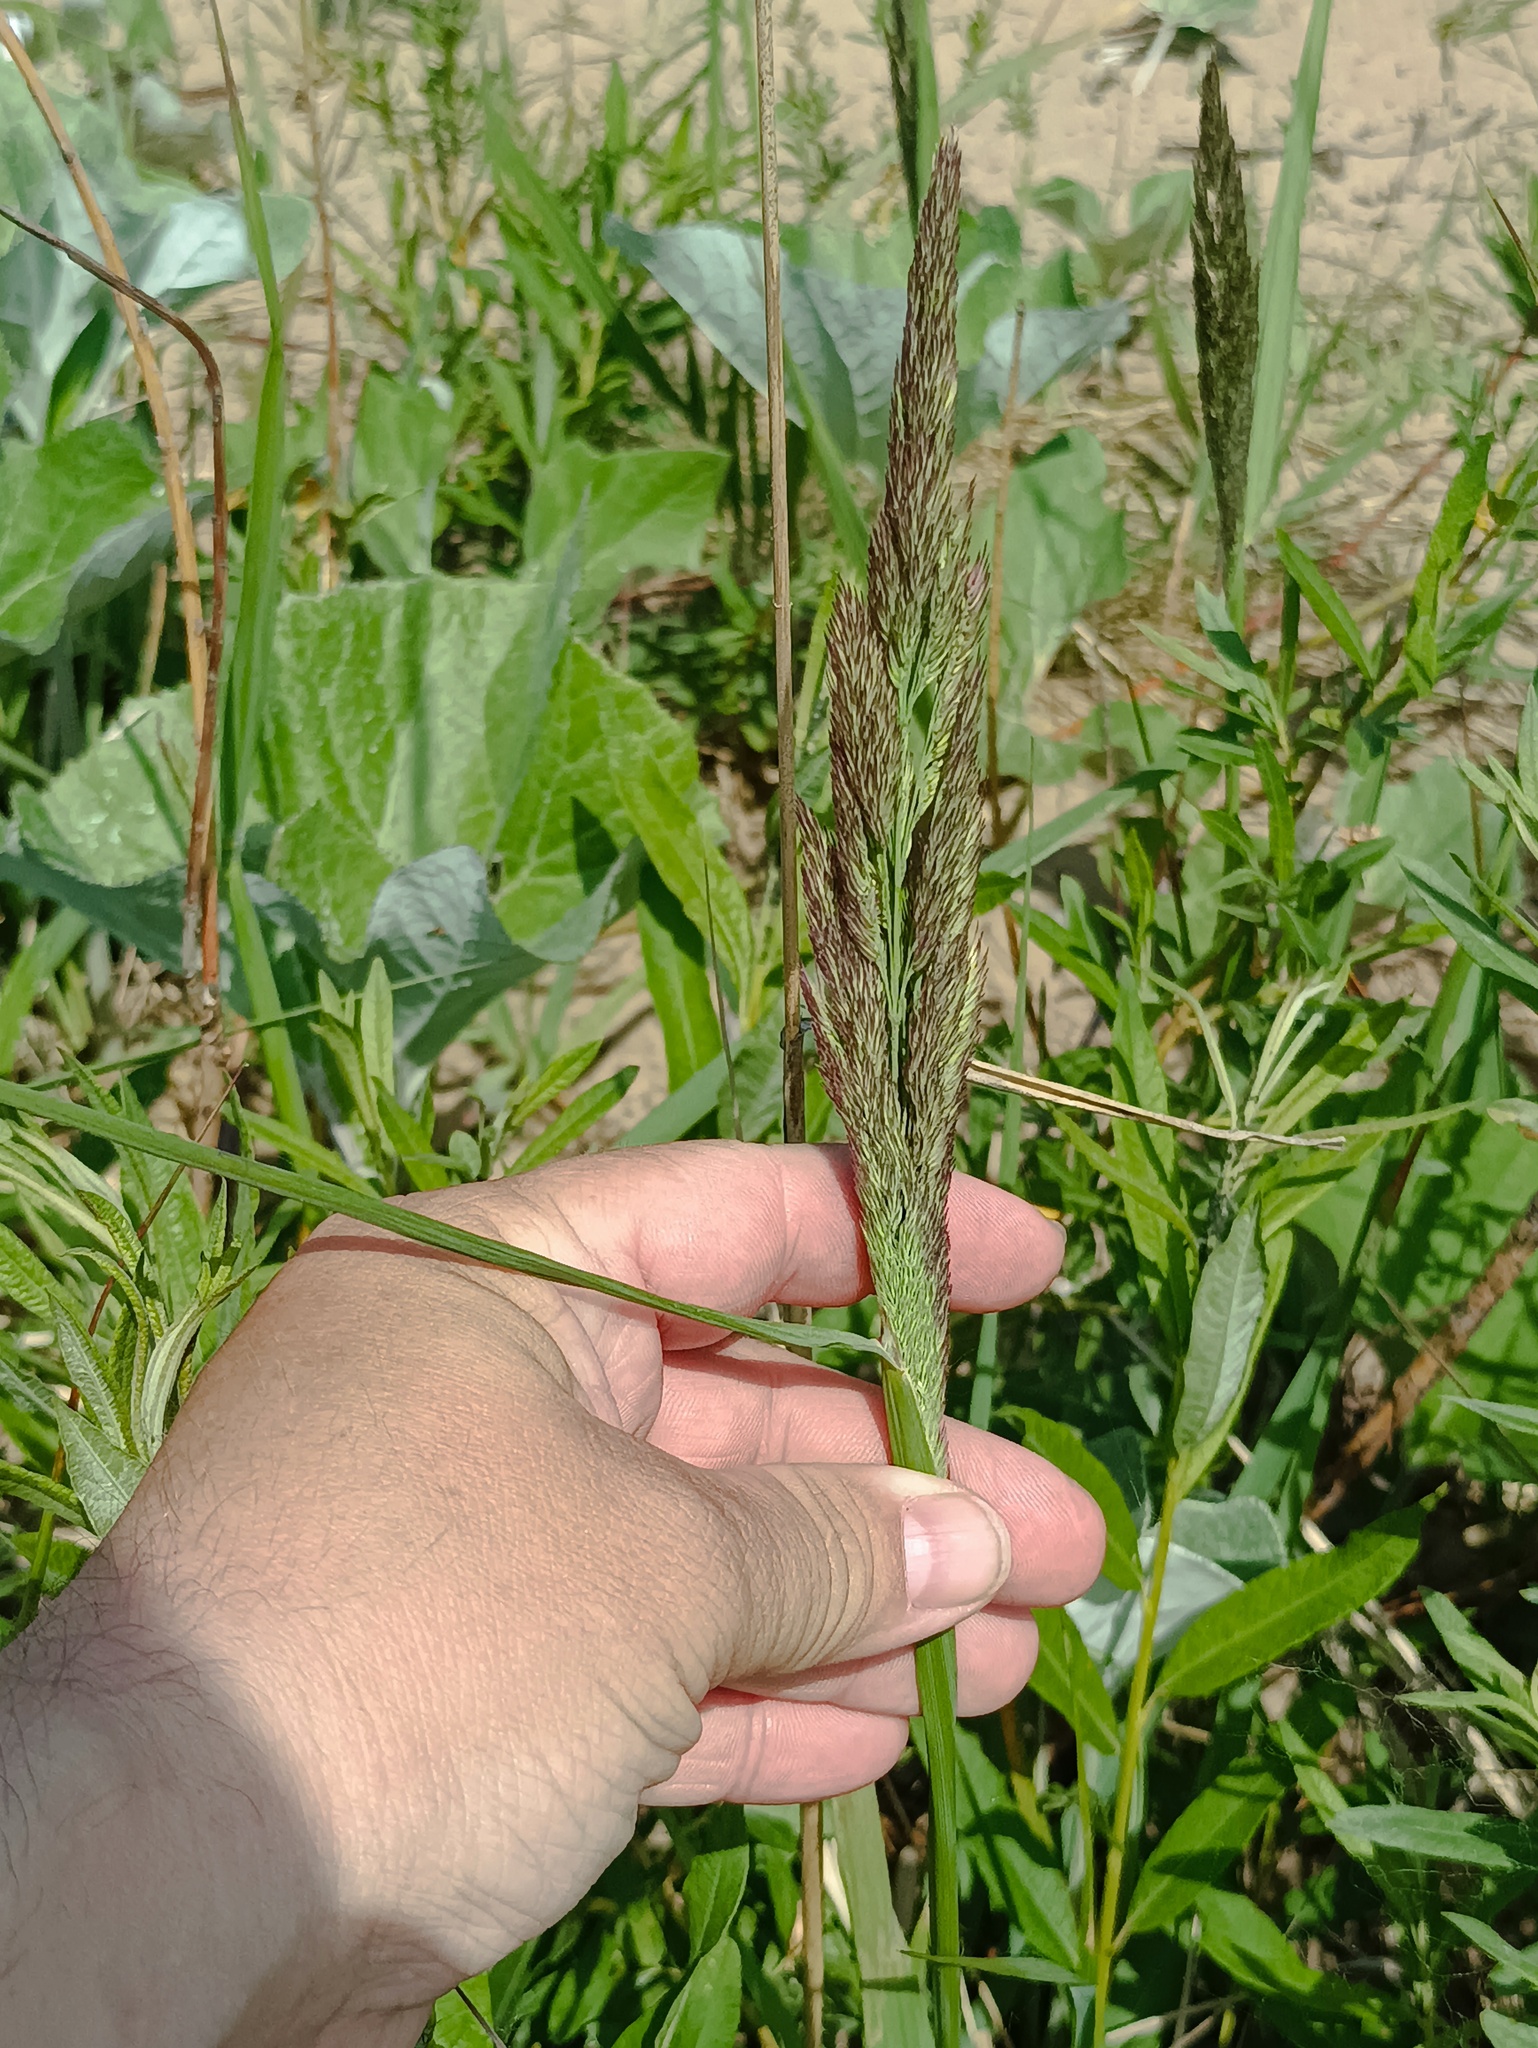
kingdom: Plantae
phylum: Tracheophyta
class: Liliopsida
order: Poales
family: Poaceae
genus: Calamagrostis
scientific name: Calamagrostis epigejos
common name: Wood small-reed
